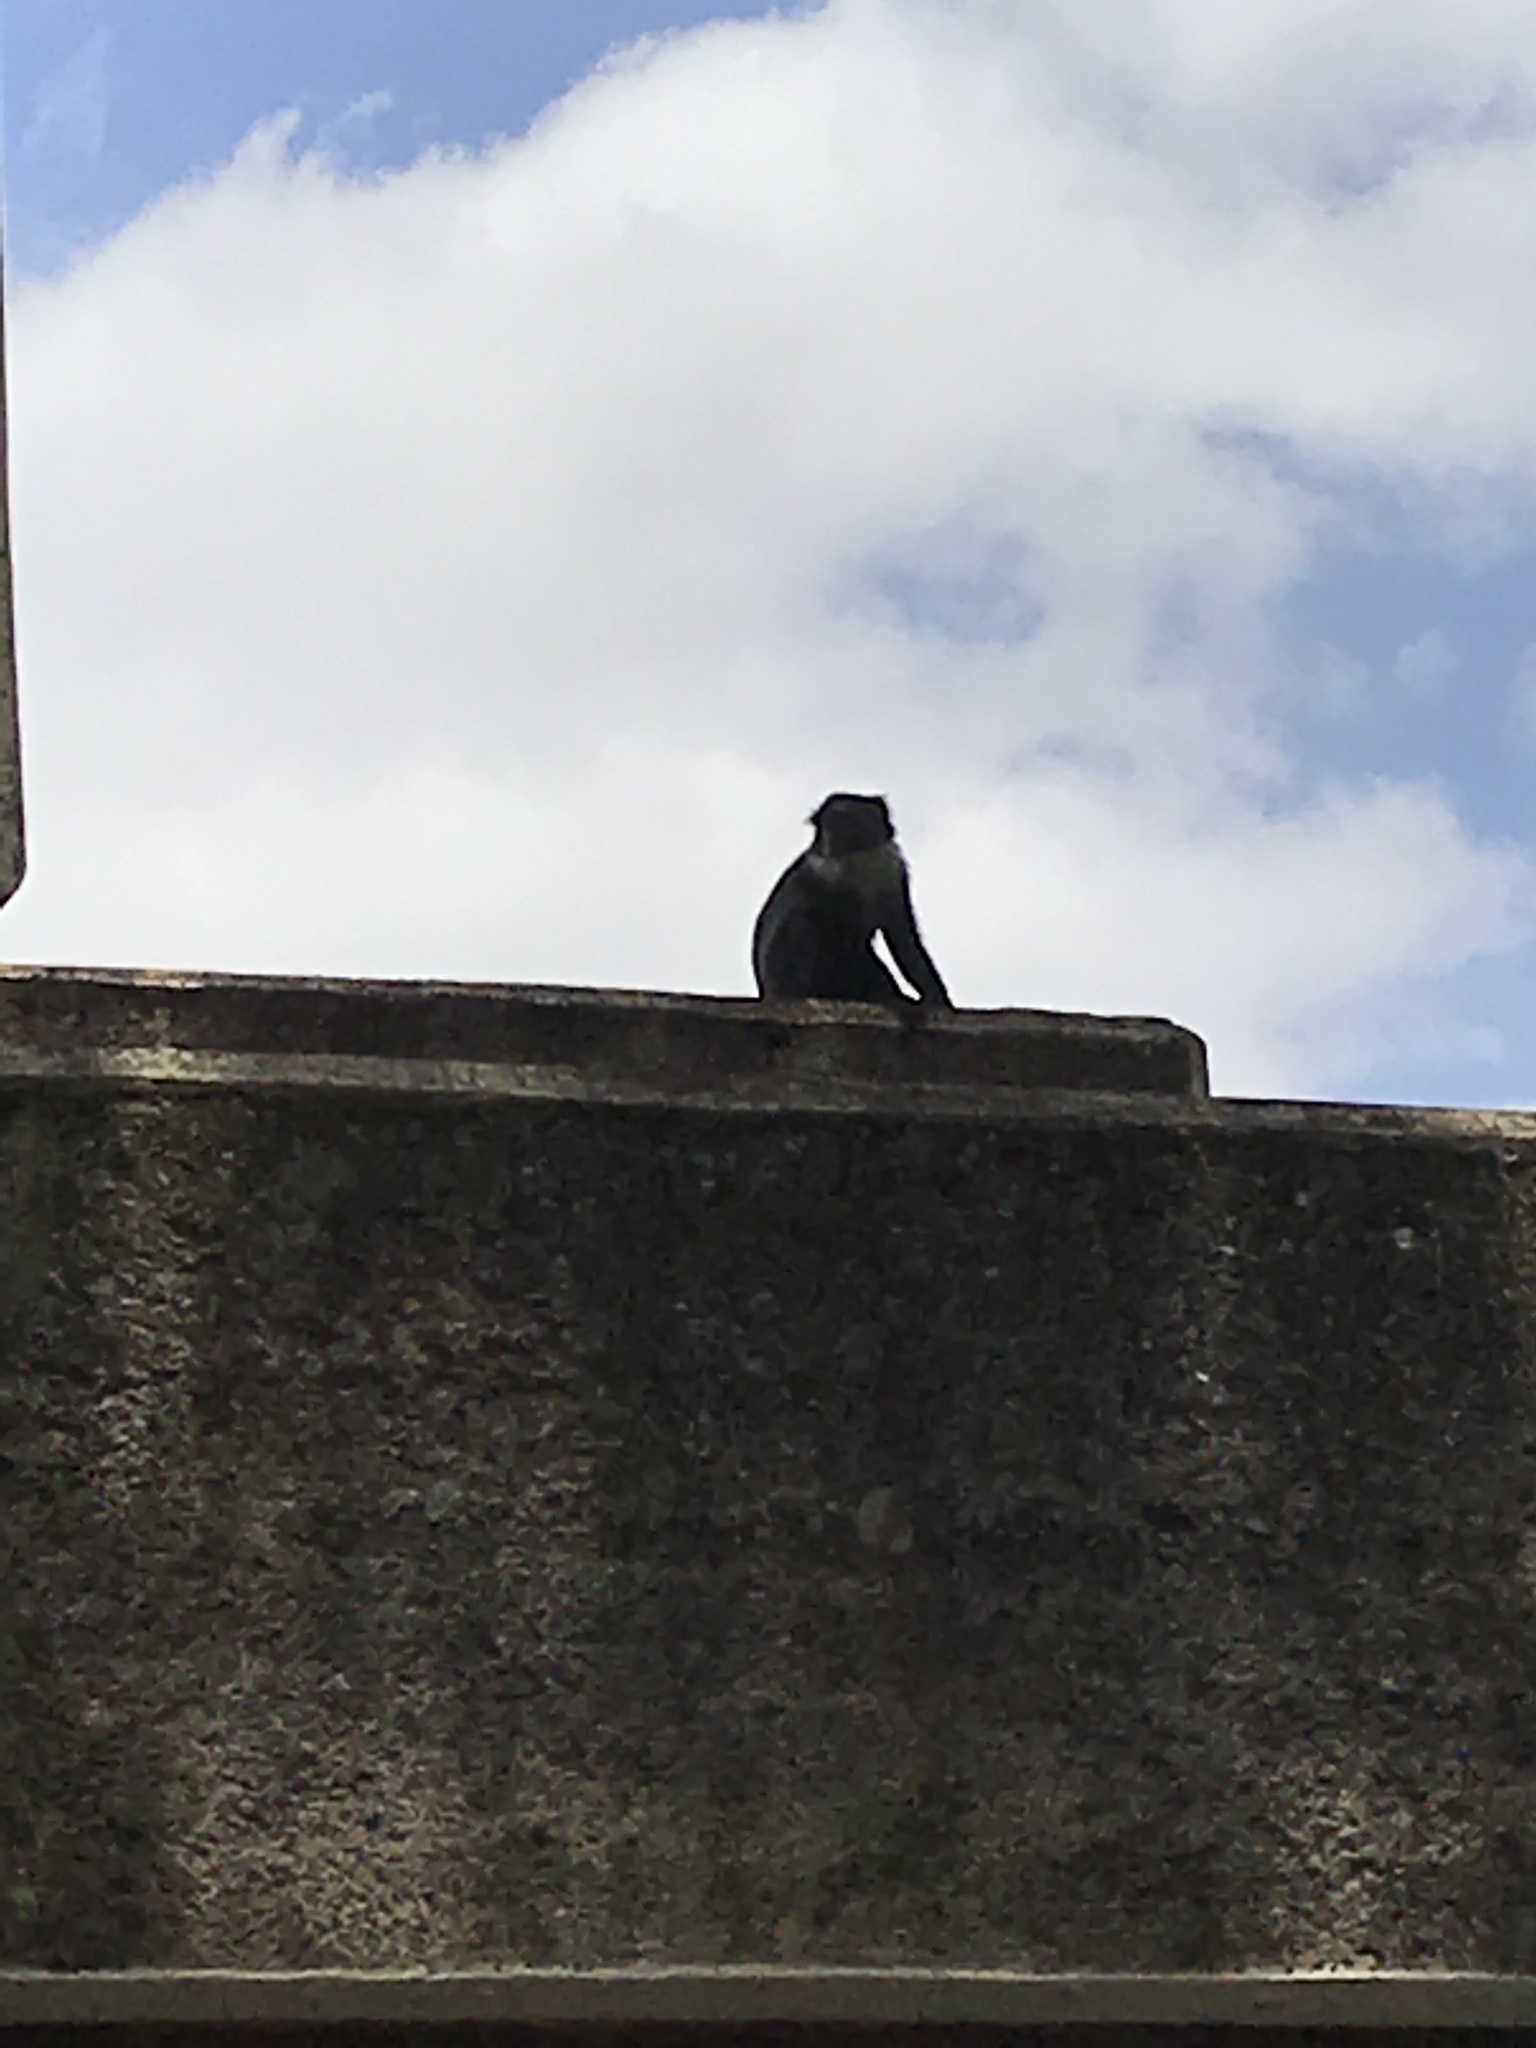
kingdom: Animalia
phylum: Chordata
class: Mammalia
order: Primates
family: Cercopithecidae
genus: Cercopithecus
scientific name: Cercopithecus mitis
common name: Blue monkey
